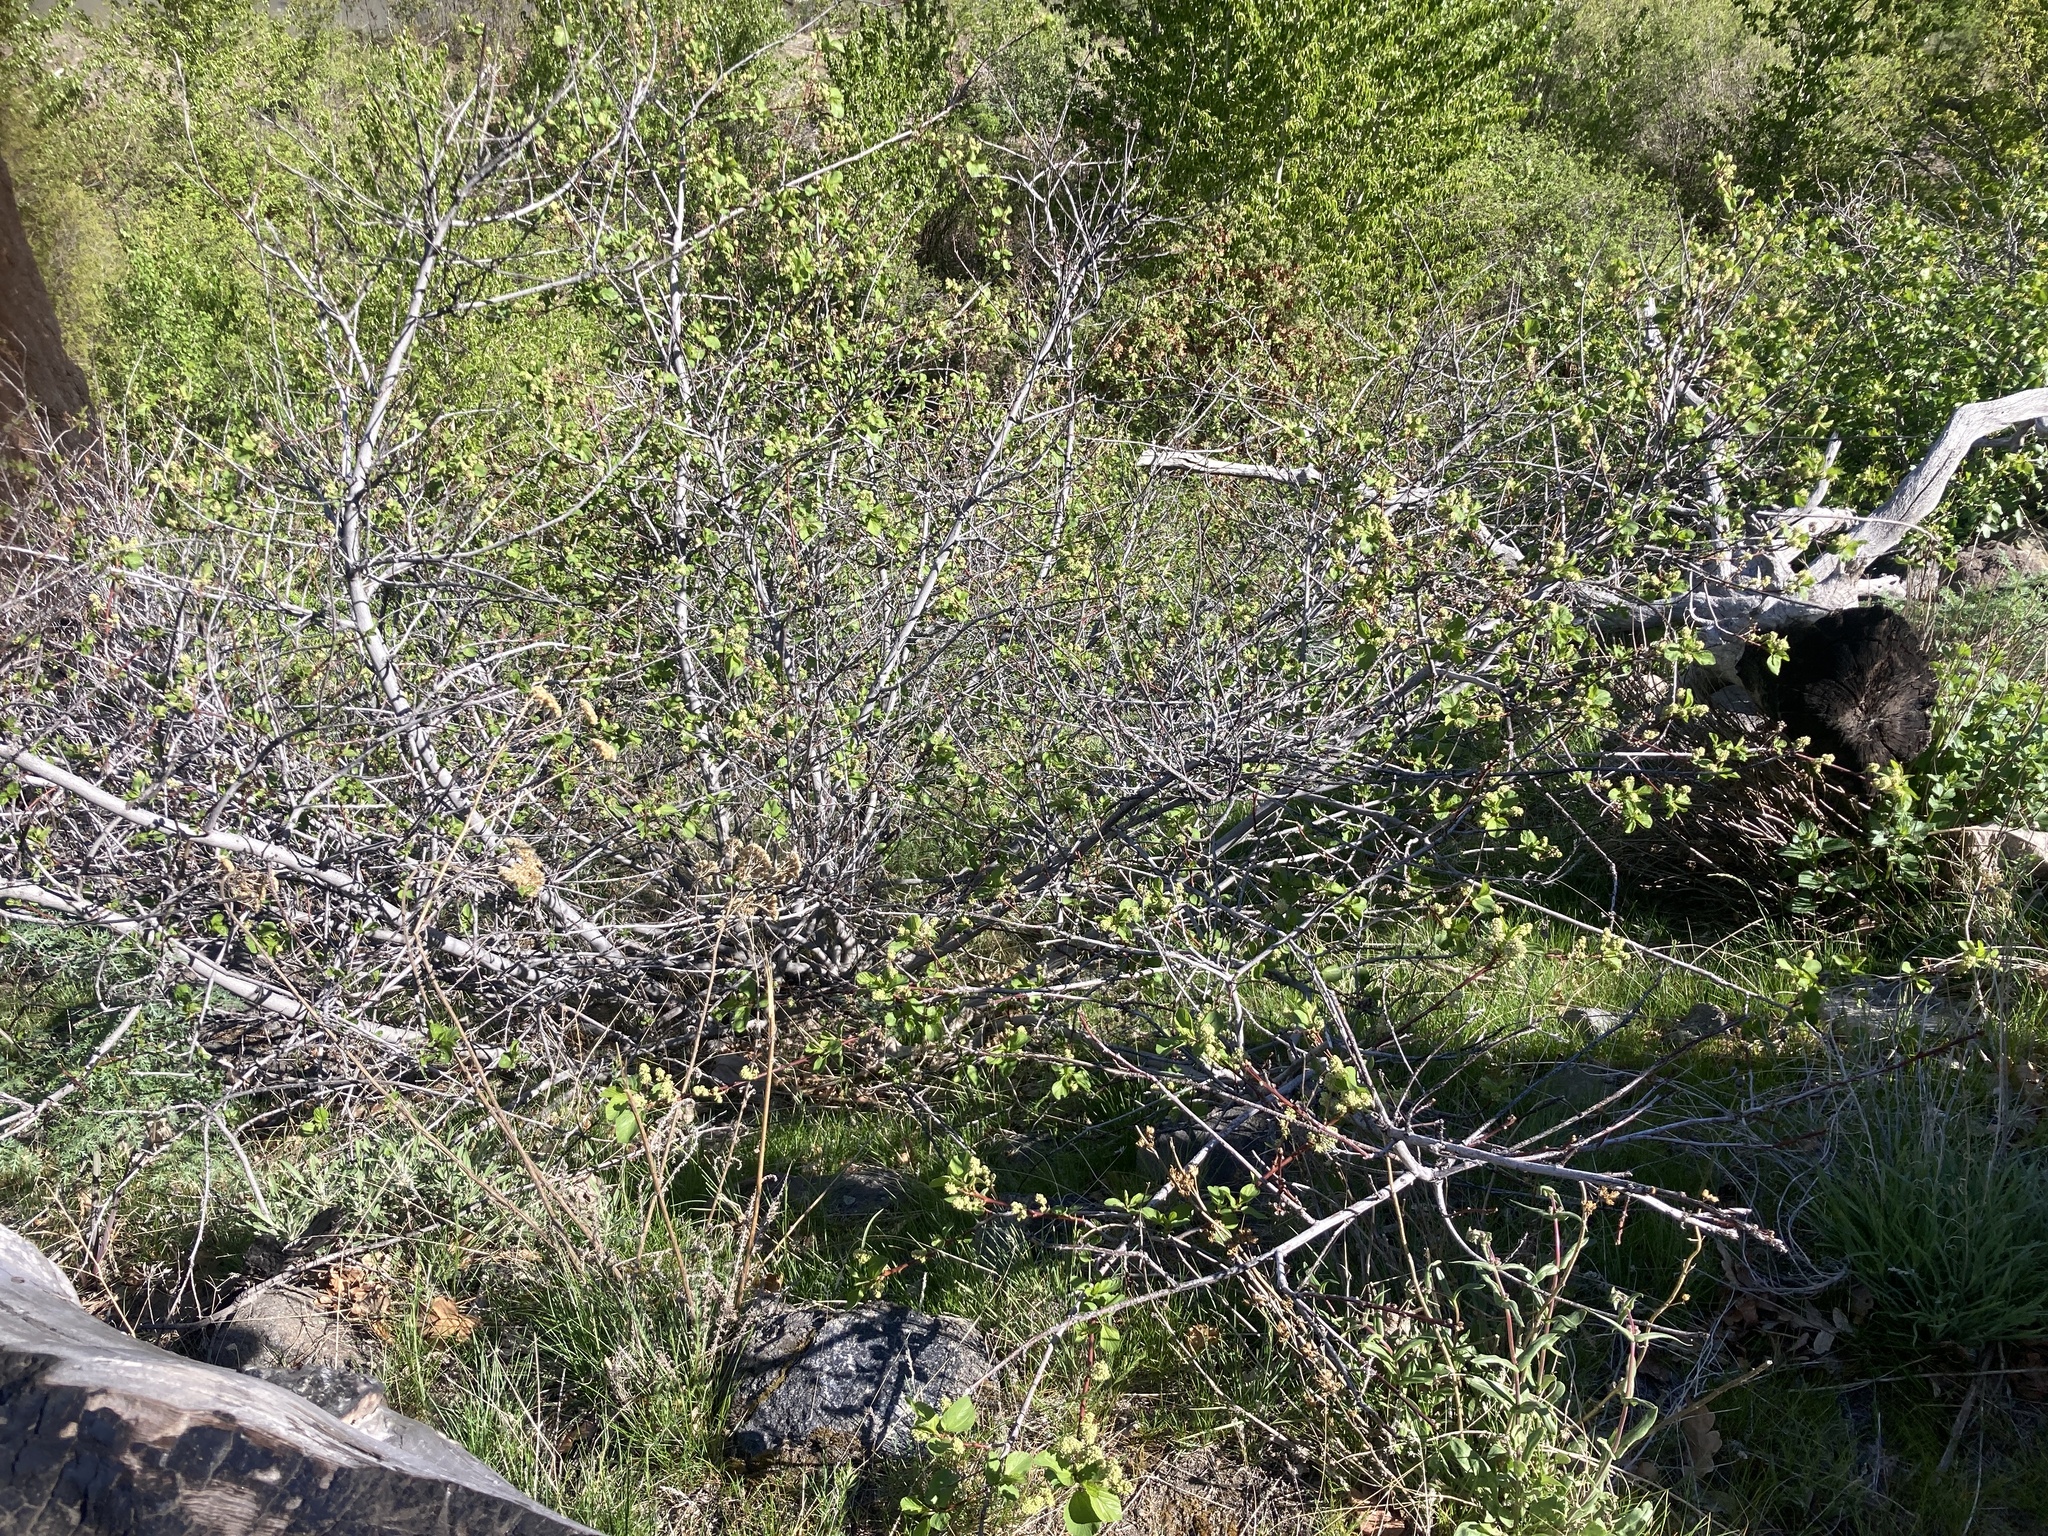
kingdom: Plantae
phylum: Tracheophyta
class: Magnoliopsida
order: Rosales
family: Rhamnaceae
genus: Ceanothus
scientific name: Ceanothus sanguineus
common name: Teatree
